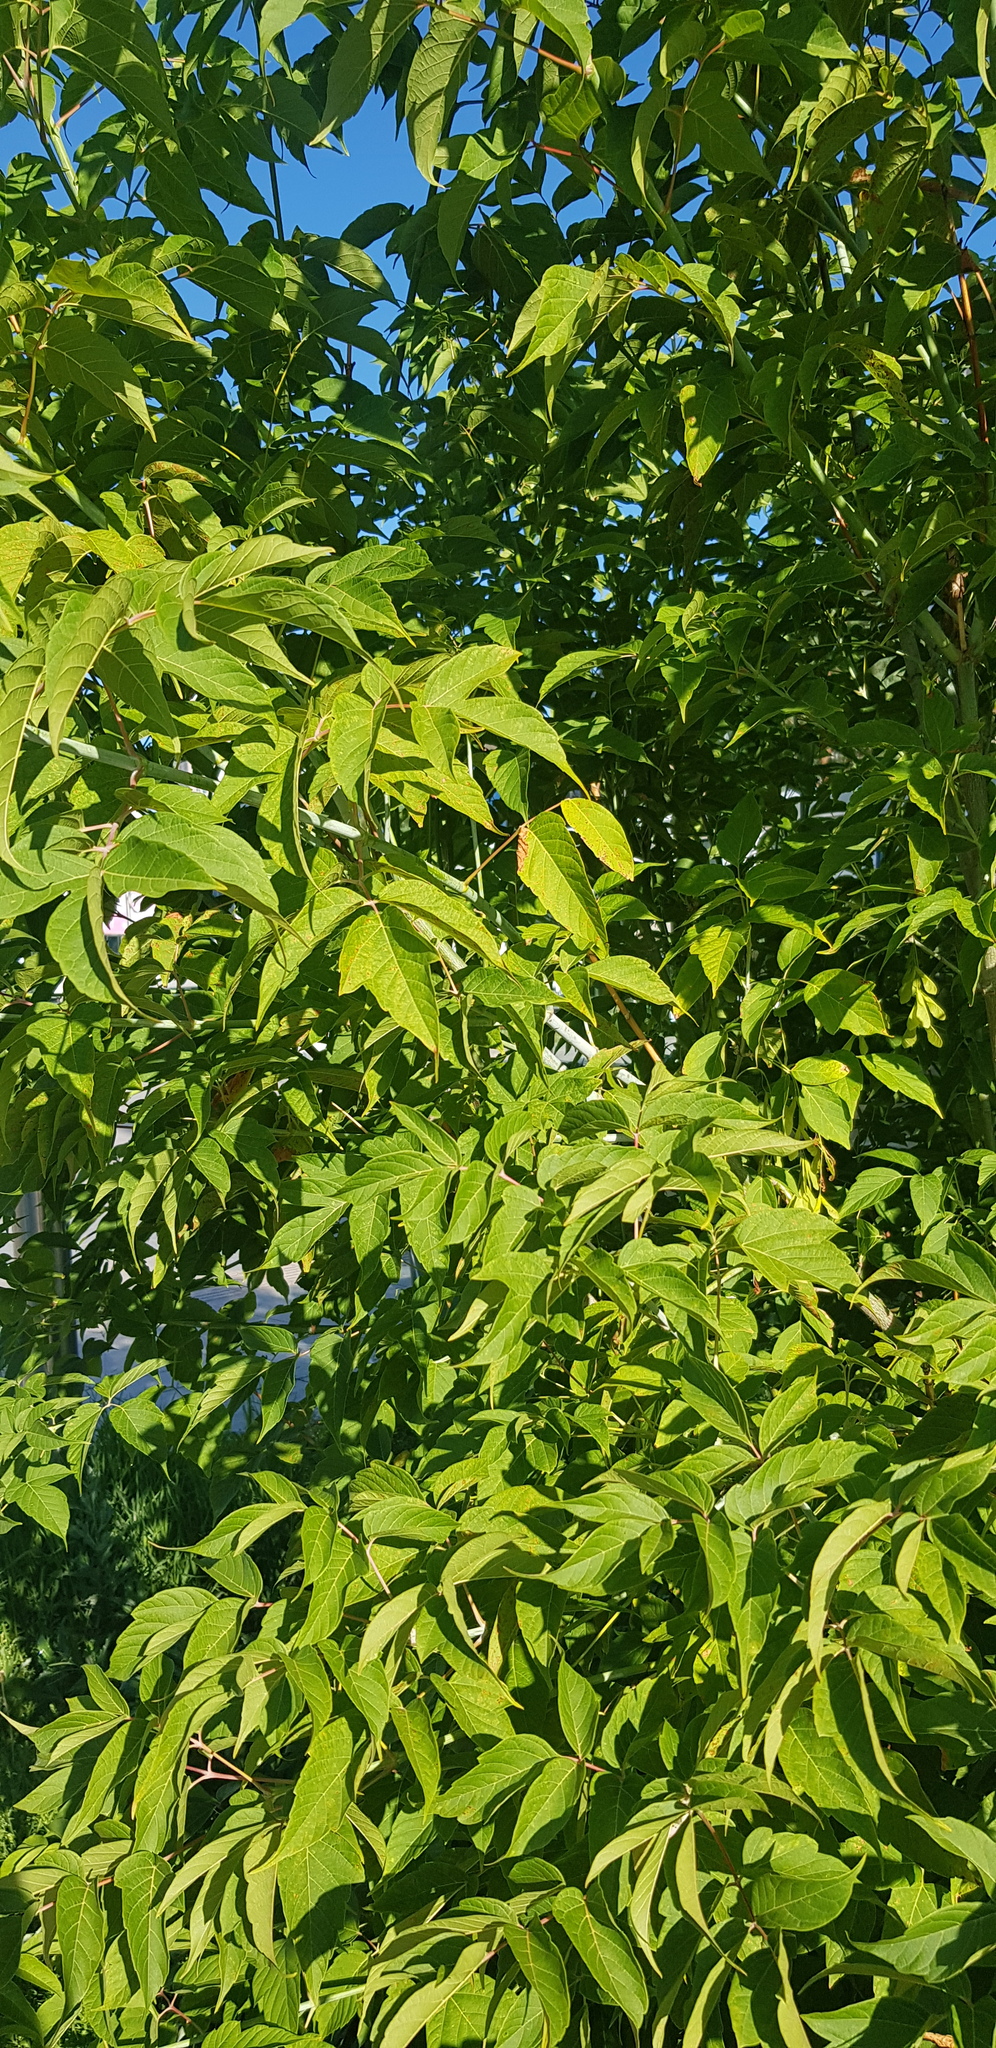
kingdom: Plantae
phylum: Tracheophyta
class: Magnoliopsida
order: Sapindales
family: Sapindaceae
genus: Acer
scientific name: Acer negundo
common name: Ashleaf maple
